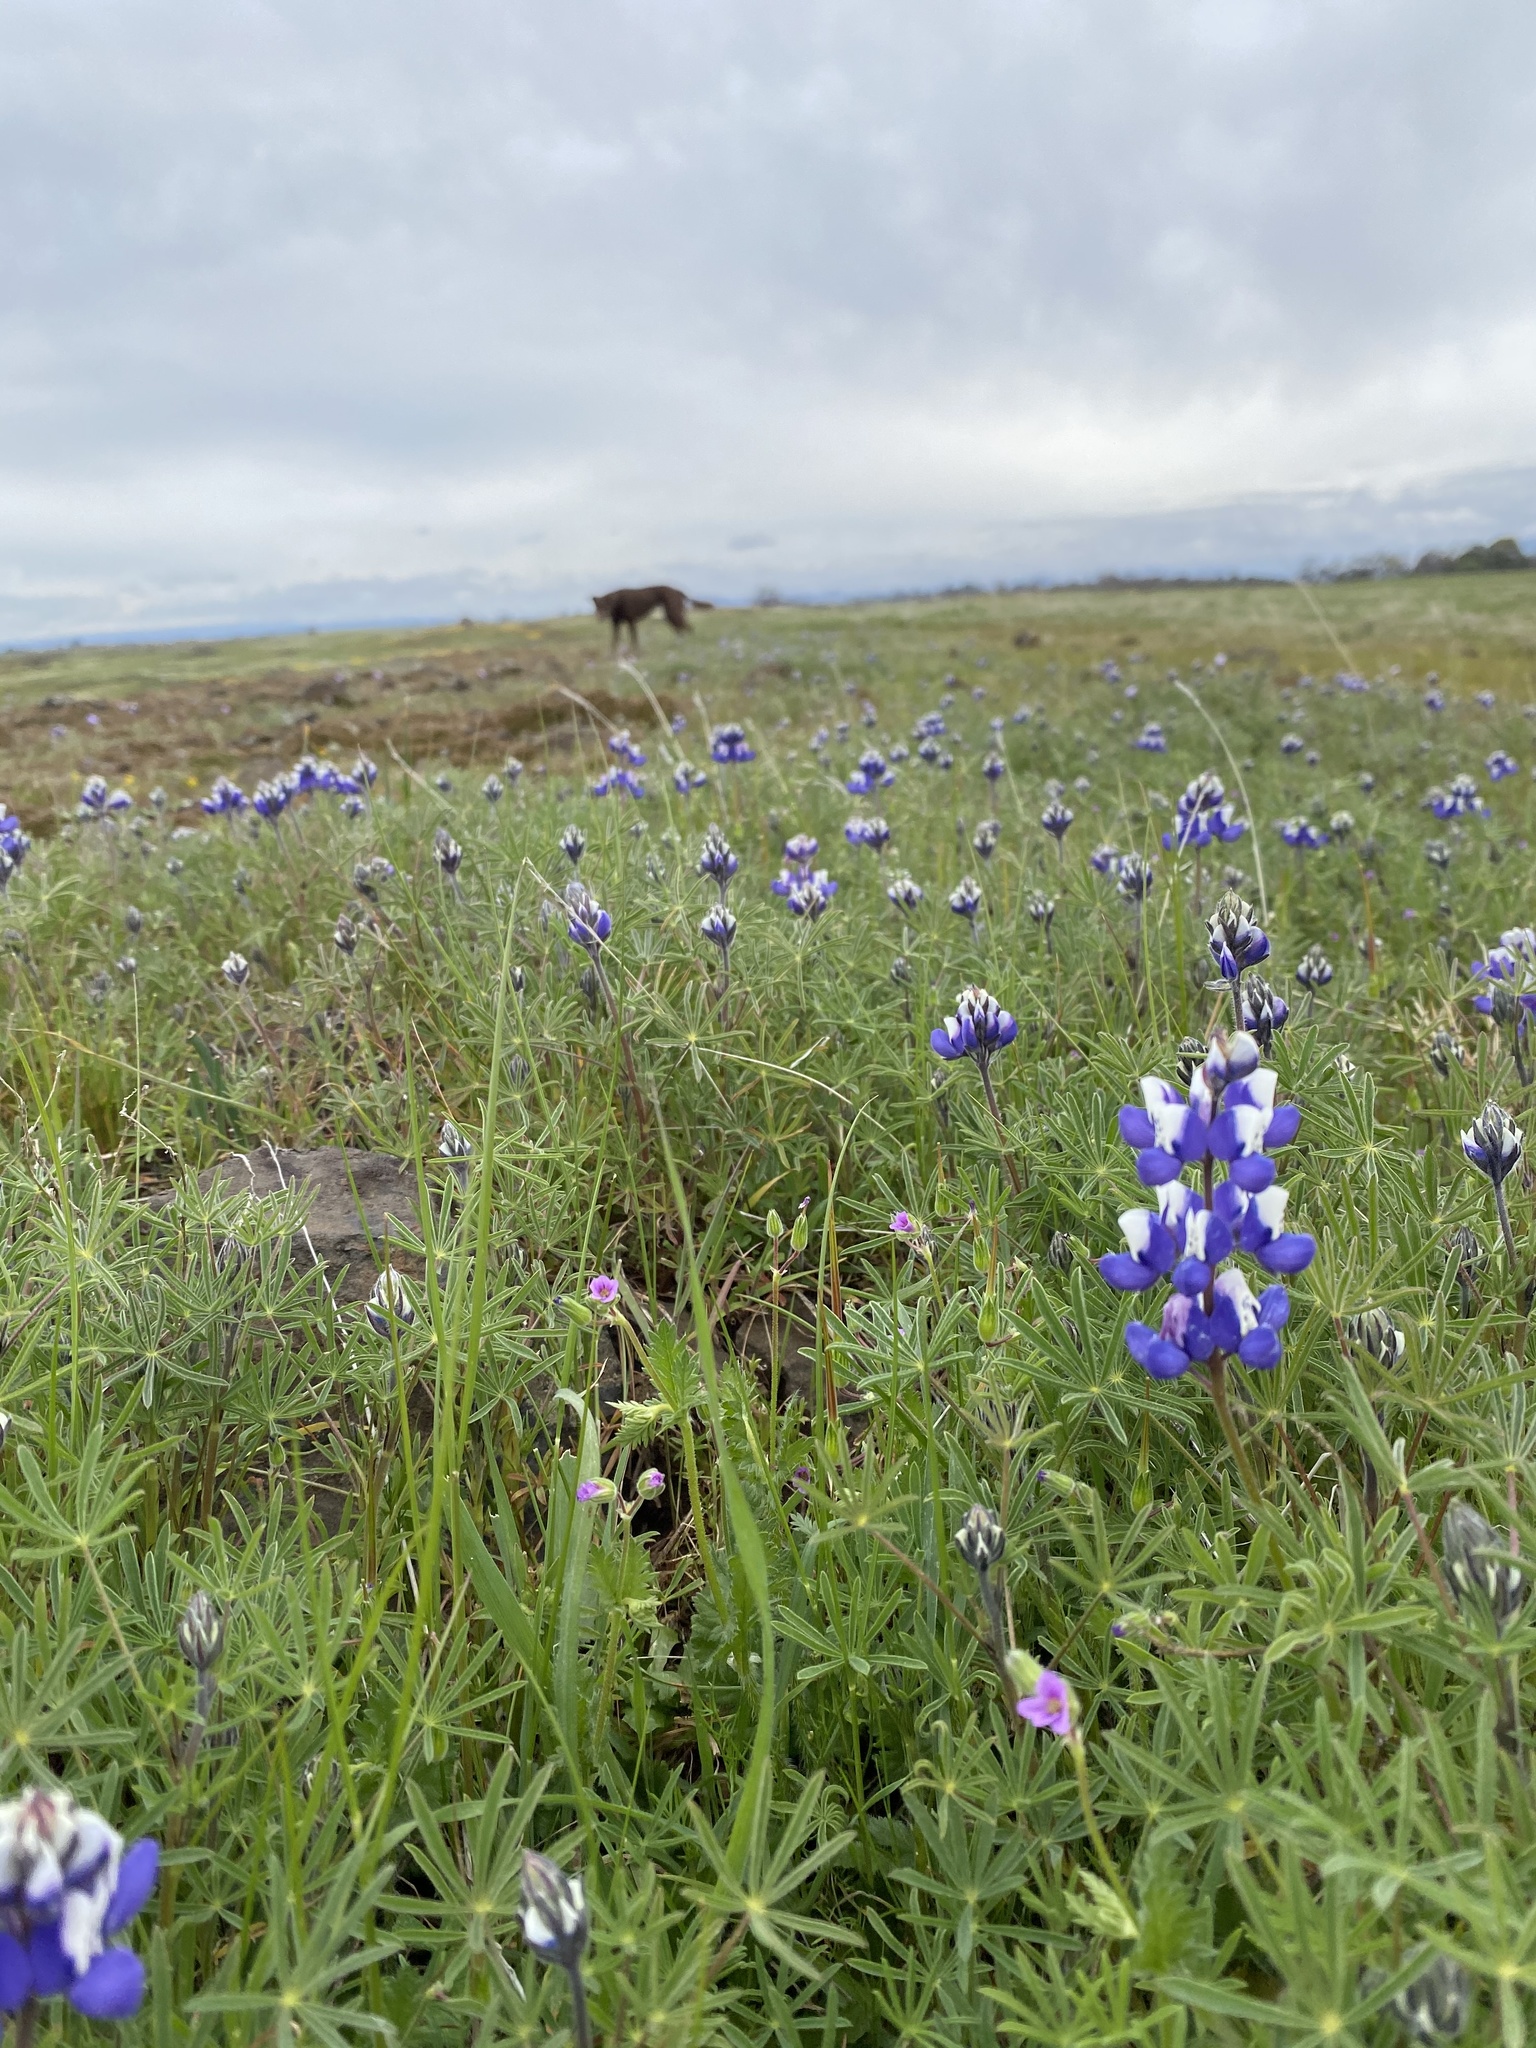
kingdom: Plantae
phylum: Tracheophyta
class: Magnoliopsida
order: Fabales
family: Fabaceae
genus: Lupinus
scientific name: Lupinus nanus
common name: Orean blue lupin
